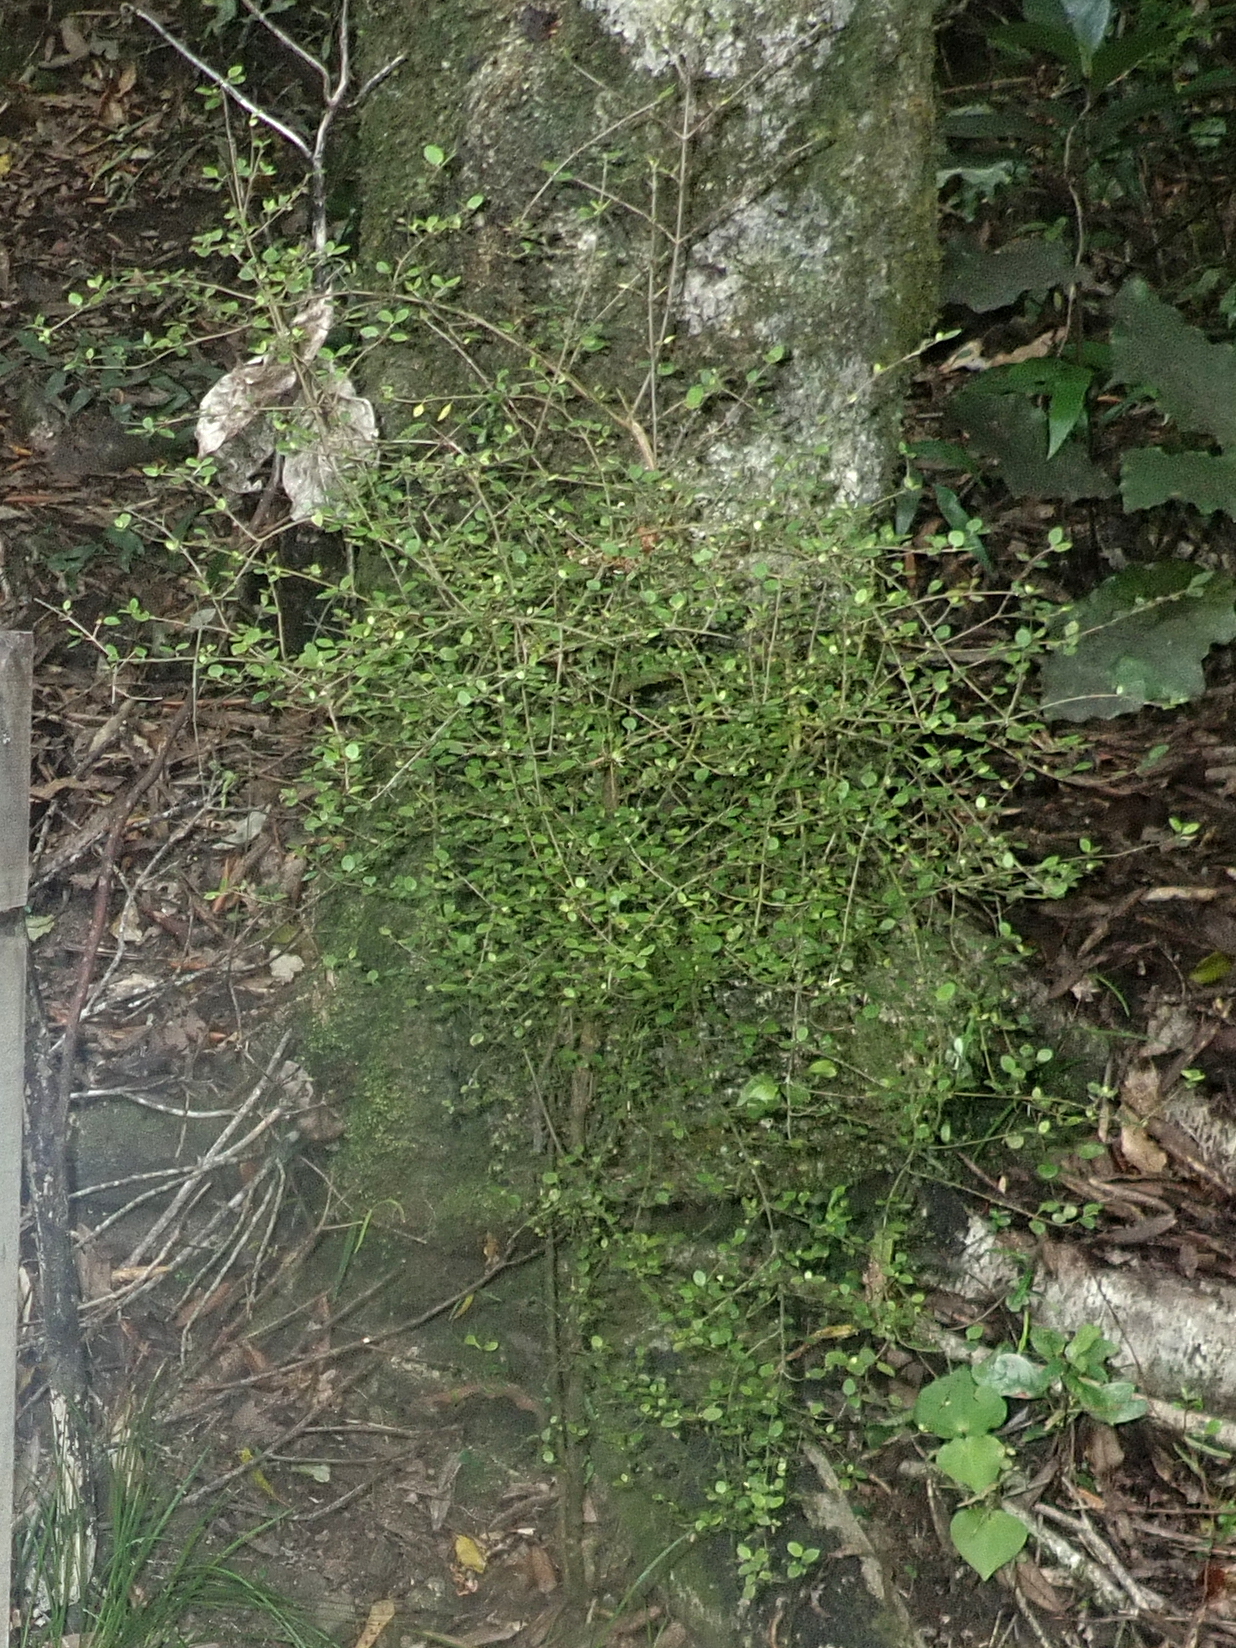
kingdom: Plantae
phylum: Tracheophyta
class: Magnoliopsida
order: Gentianales
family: Rubiaceae
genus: Coprosma
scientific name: Coprosma areolata
